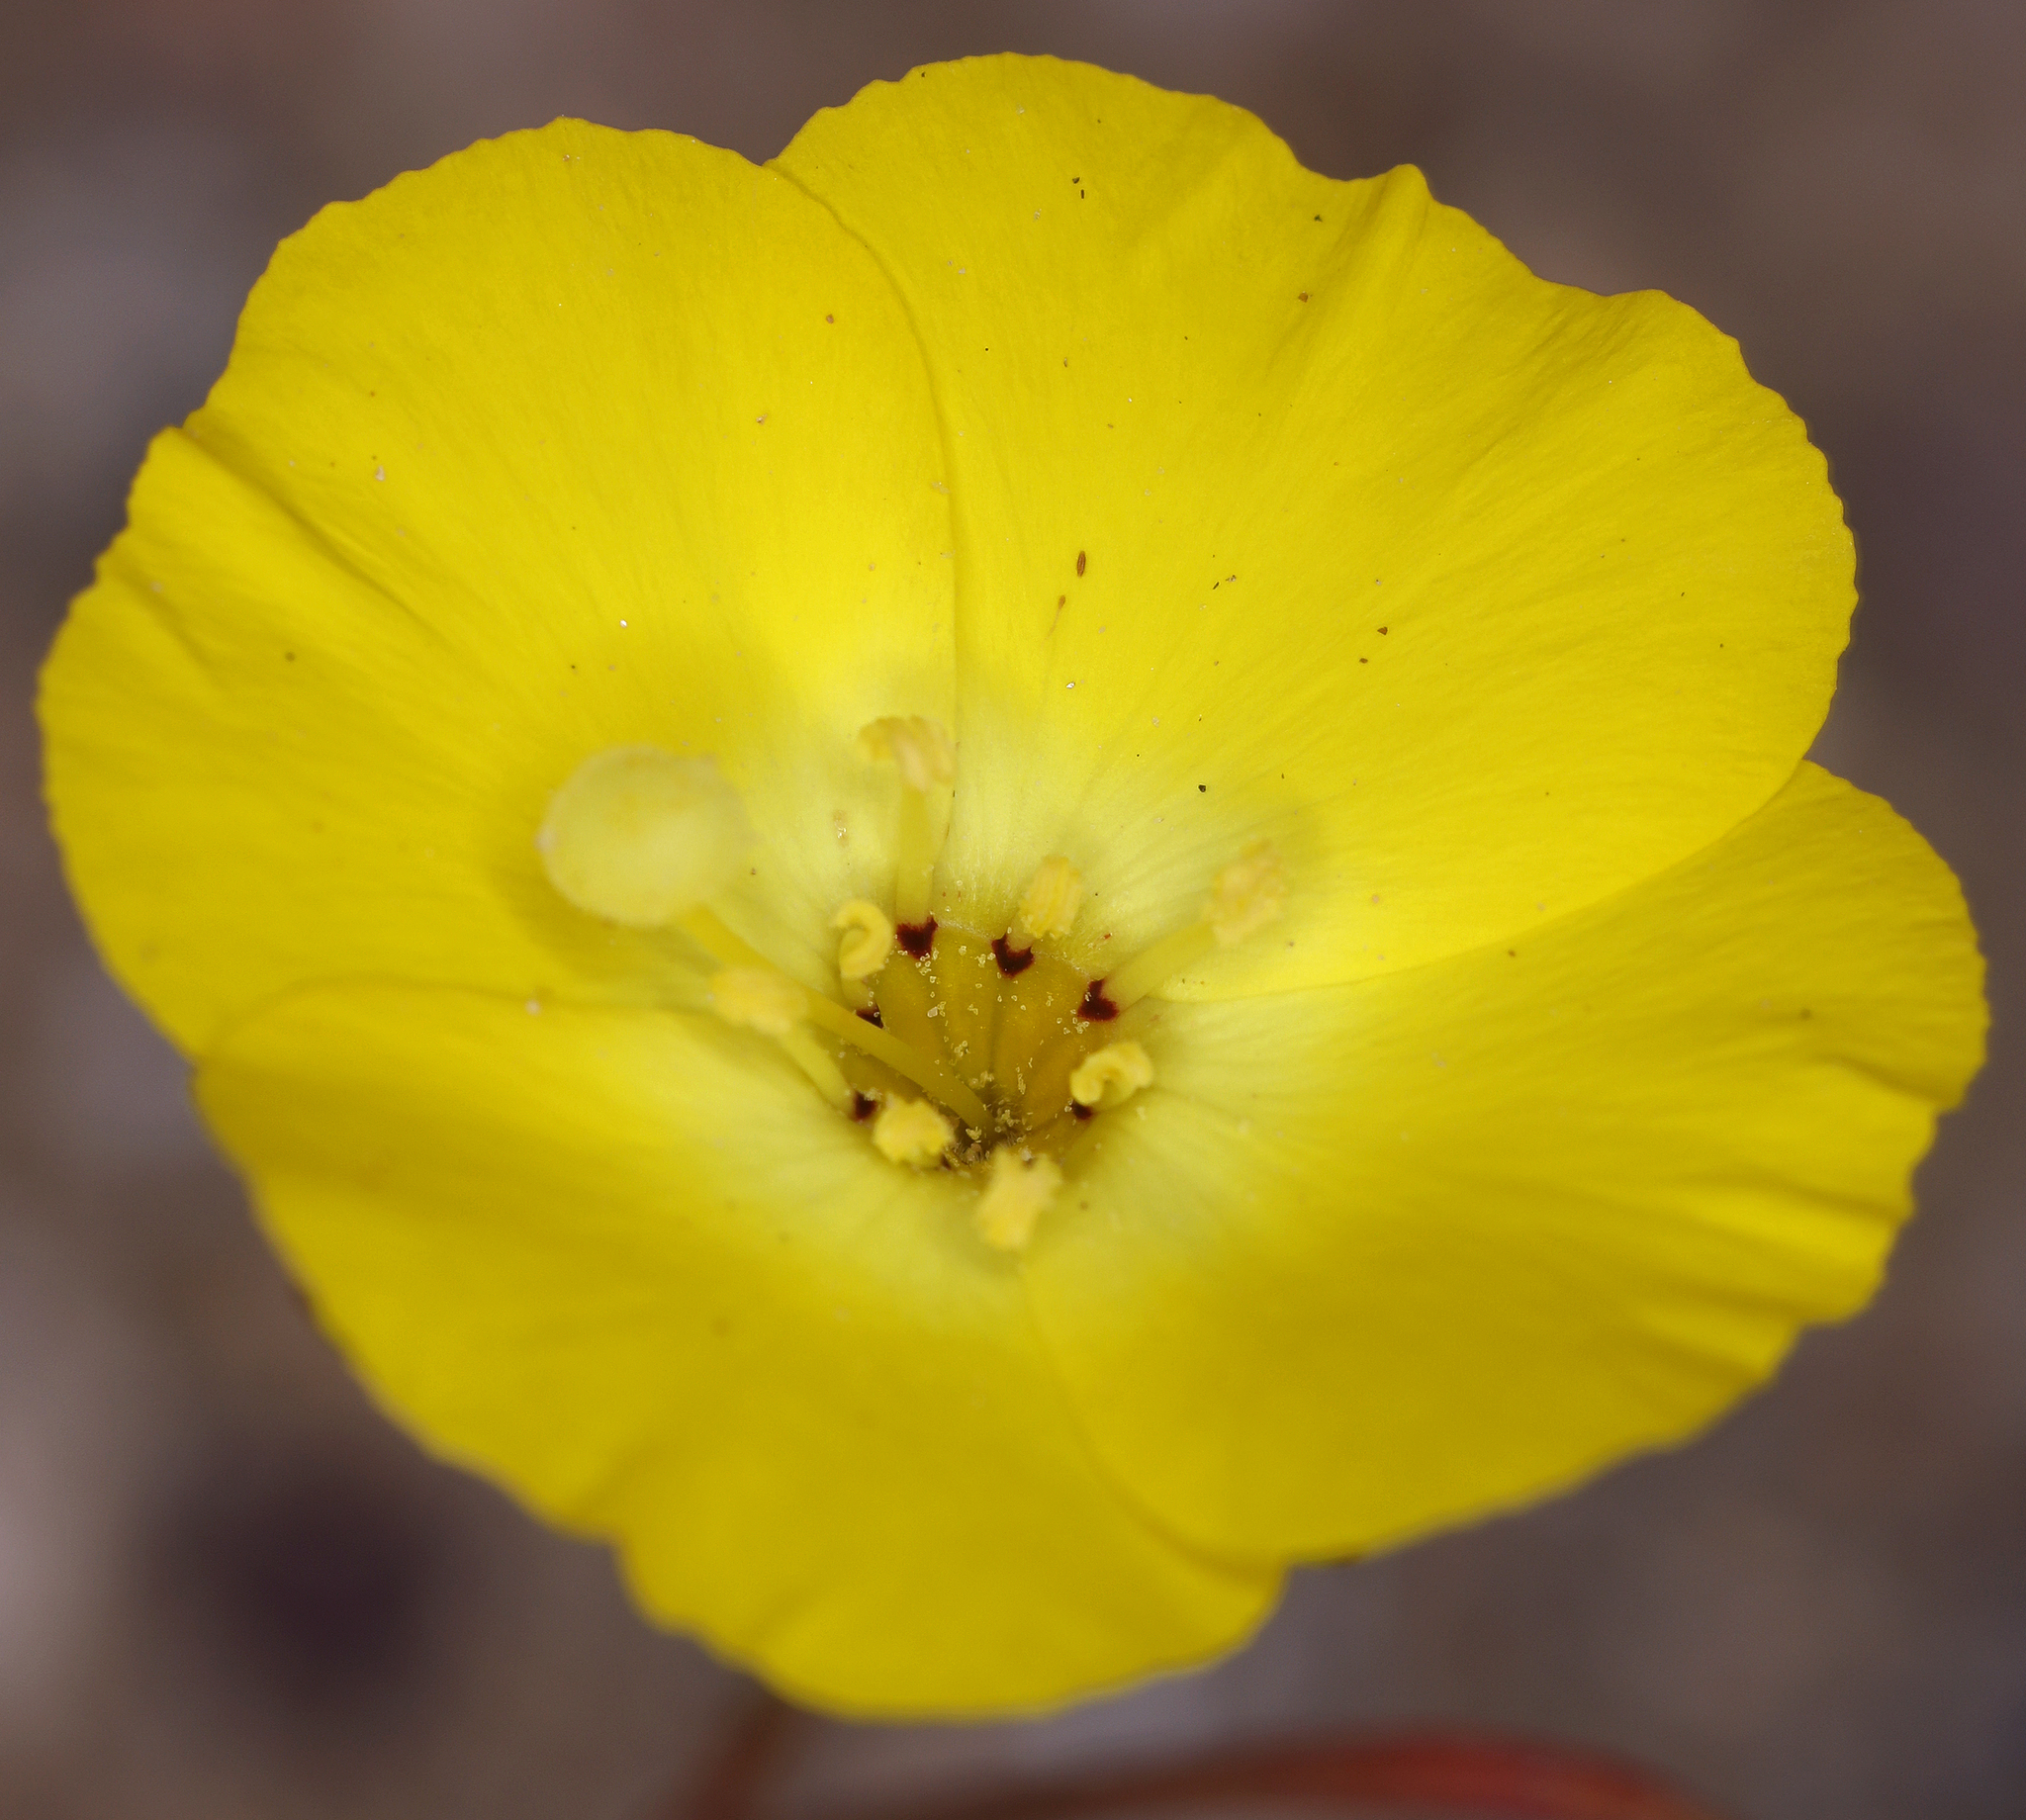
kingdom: Plantae
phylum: Tracheophyta
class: Magnoliopsida
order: Myrtales
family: Onagraceae
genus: Camissonia
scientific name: Camissonia campestris
